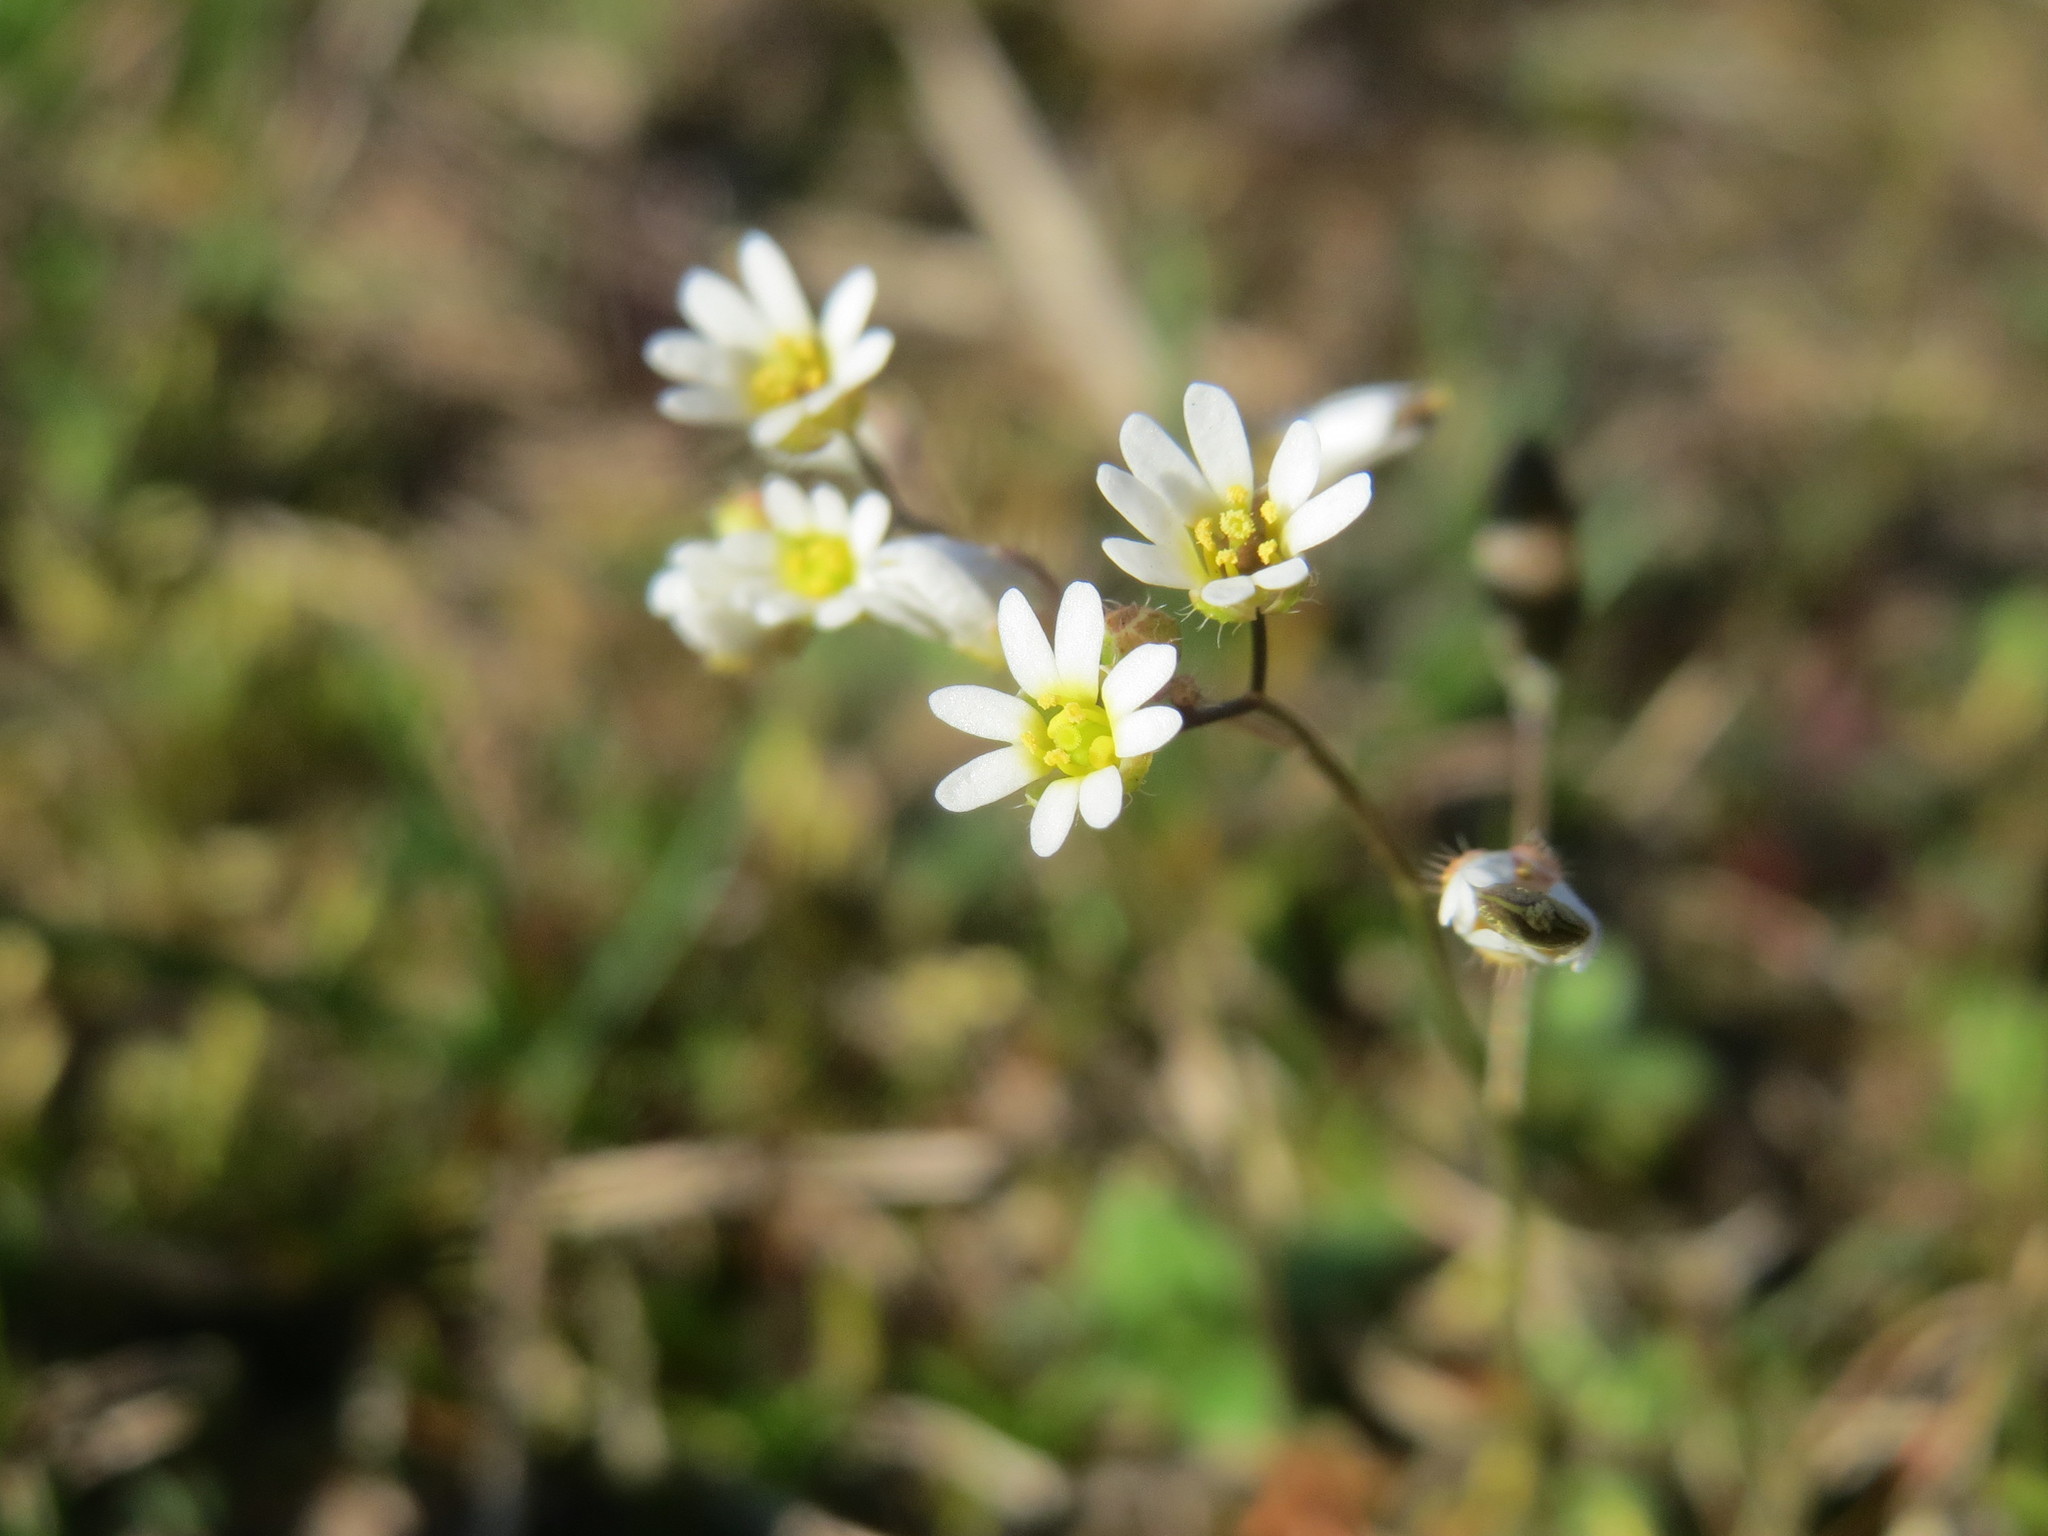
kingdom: Plantae
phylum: Tracheophyta
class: Magnoliopsida
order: Brassicales
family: Brassicaceae
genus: Draba
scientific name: Draba verna
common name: Spring draba
